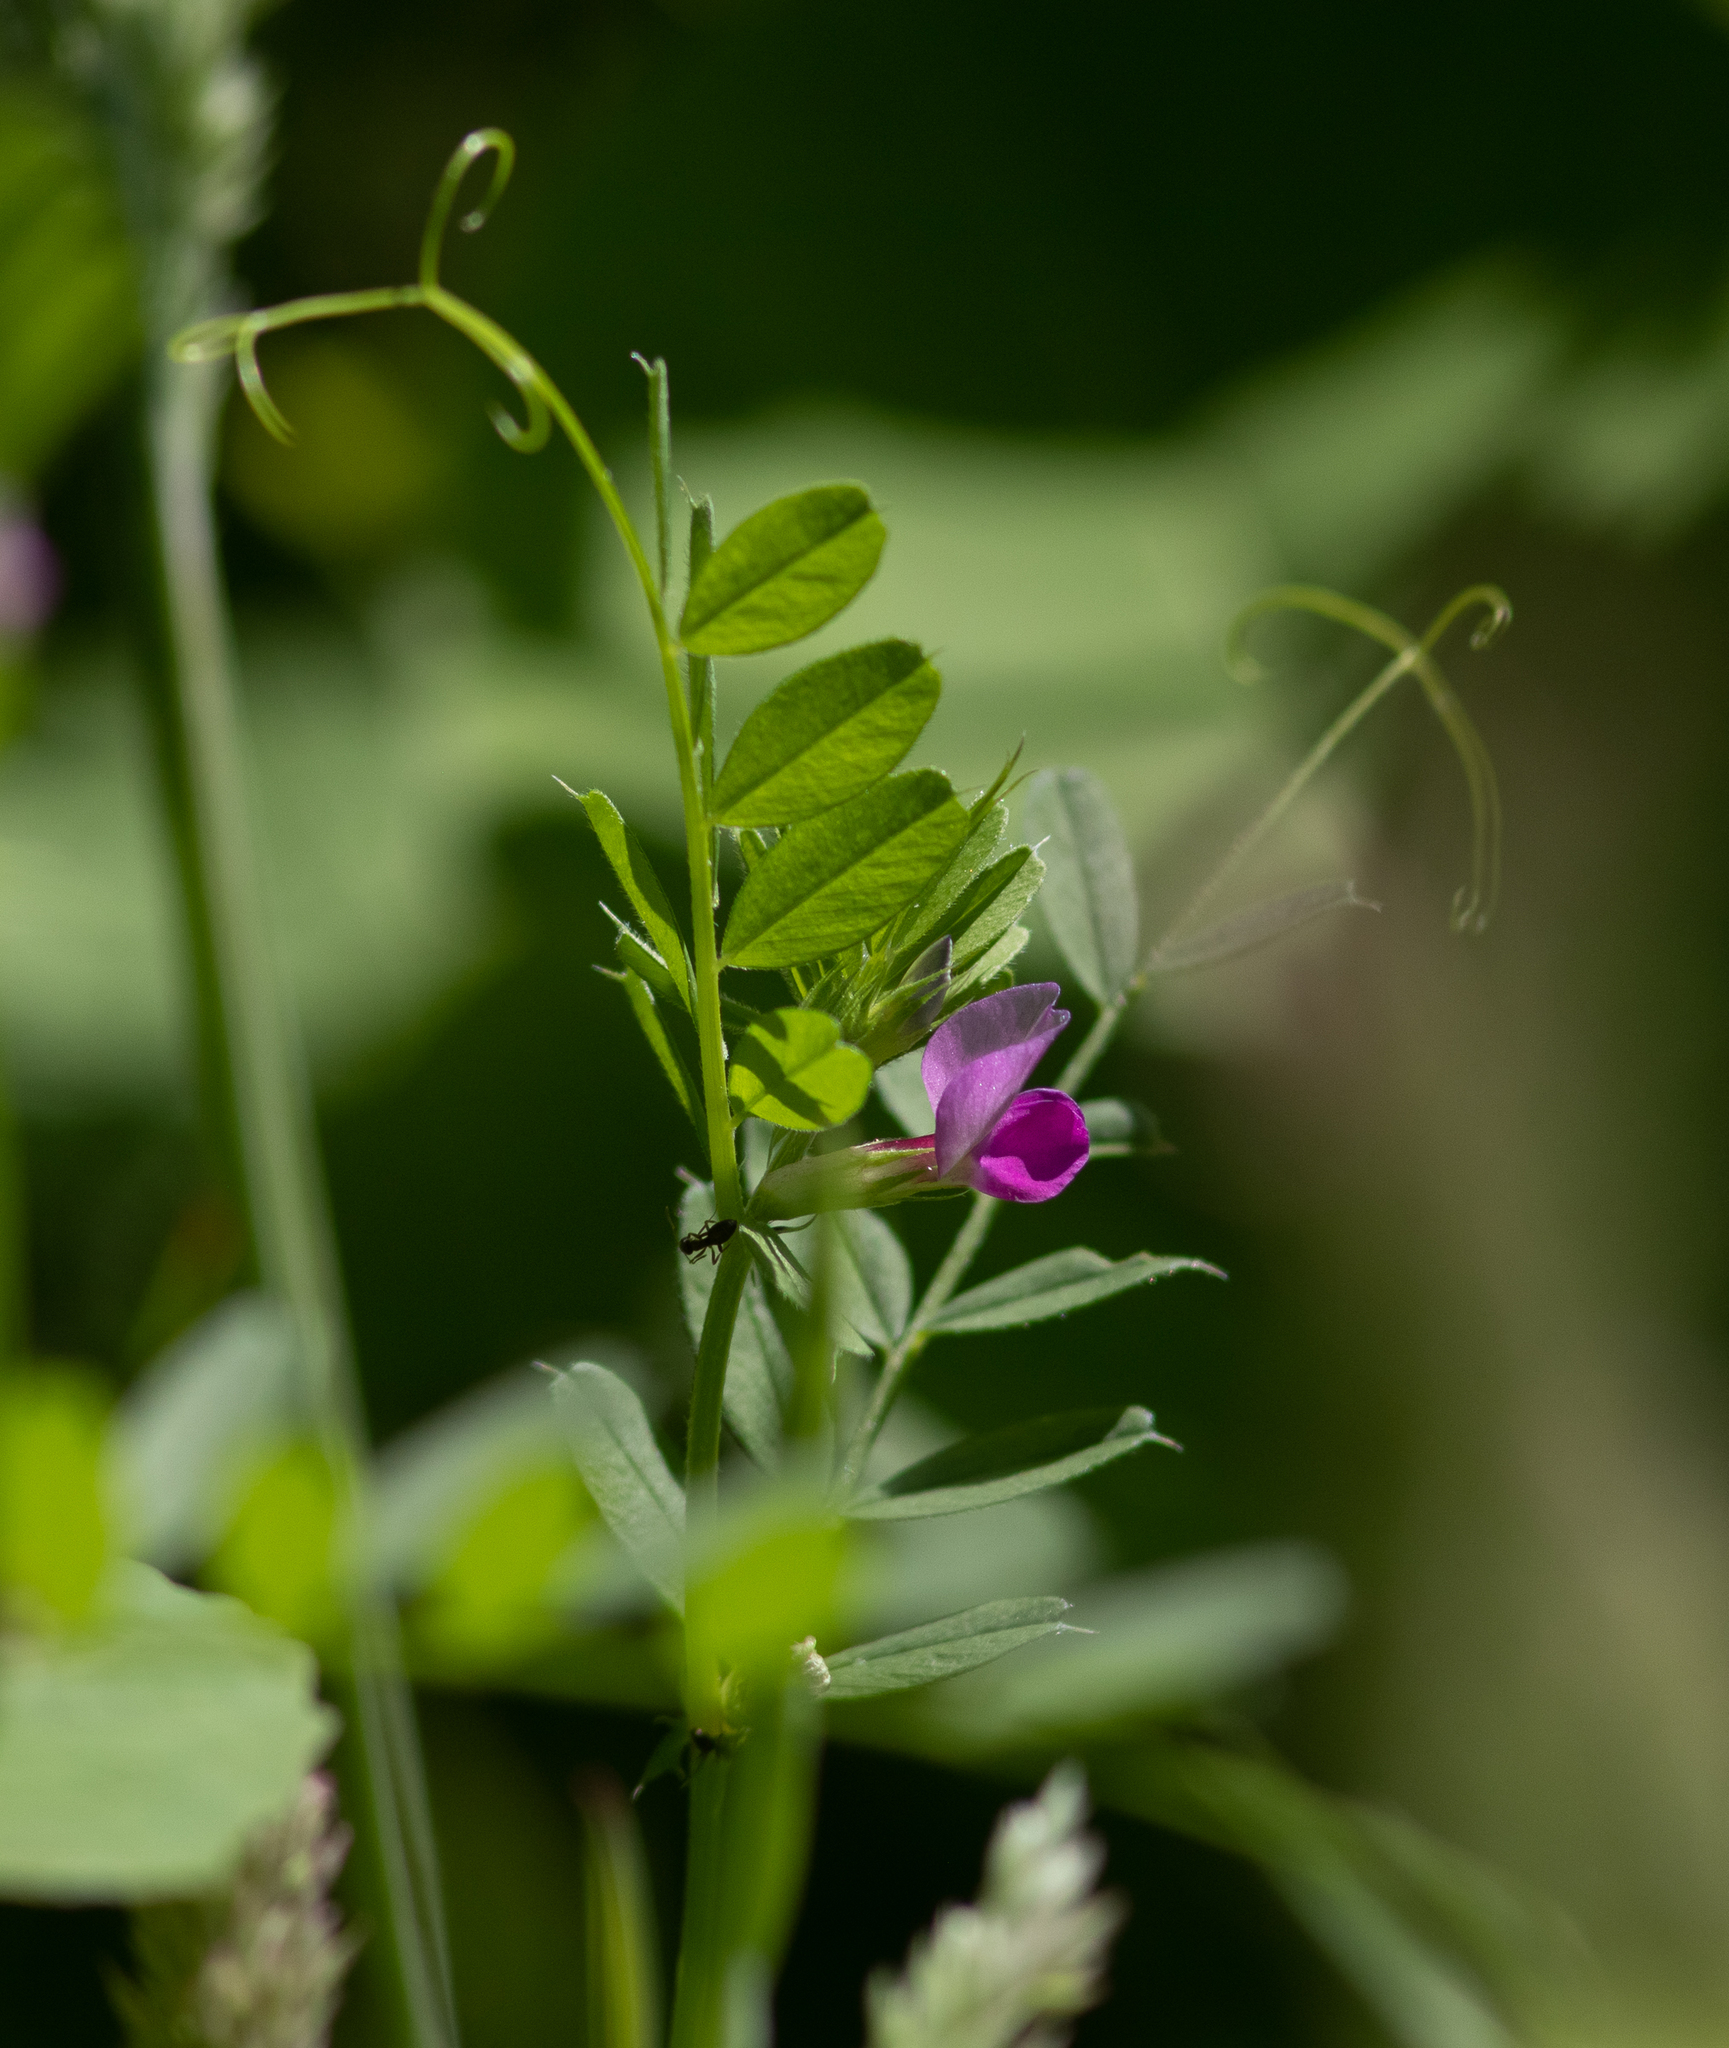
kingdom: Plantae
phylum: Tracheophyta
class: Magnoliopsida
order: Fabales
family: Fabaceae
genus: Vicia
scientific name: Vicia sativa
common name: Garden vetch
